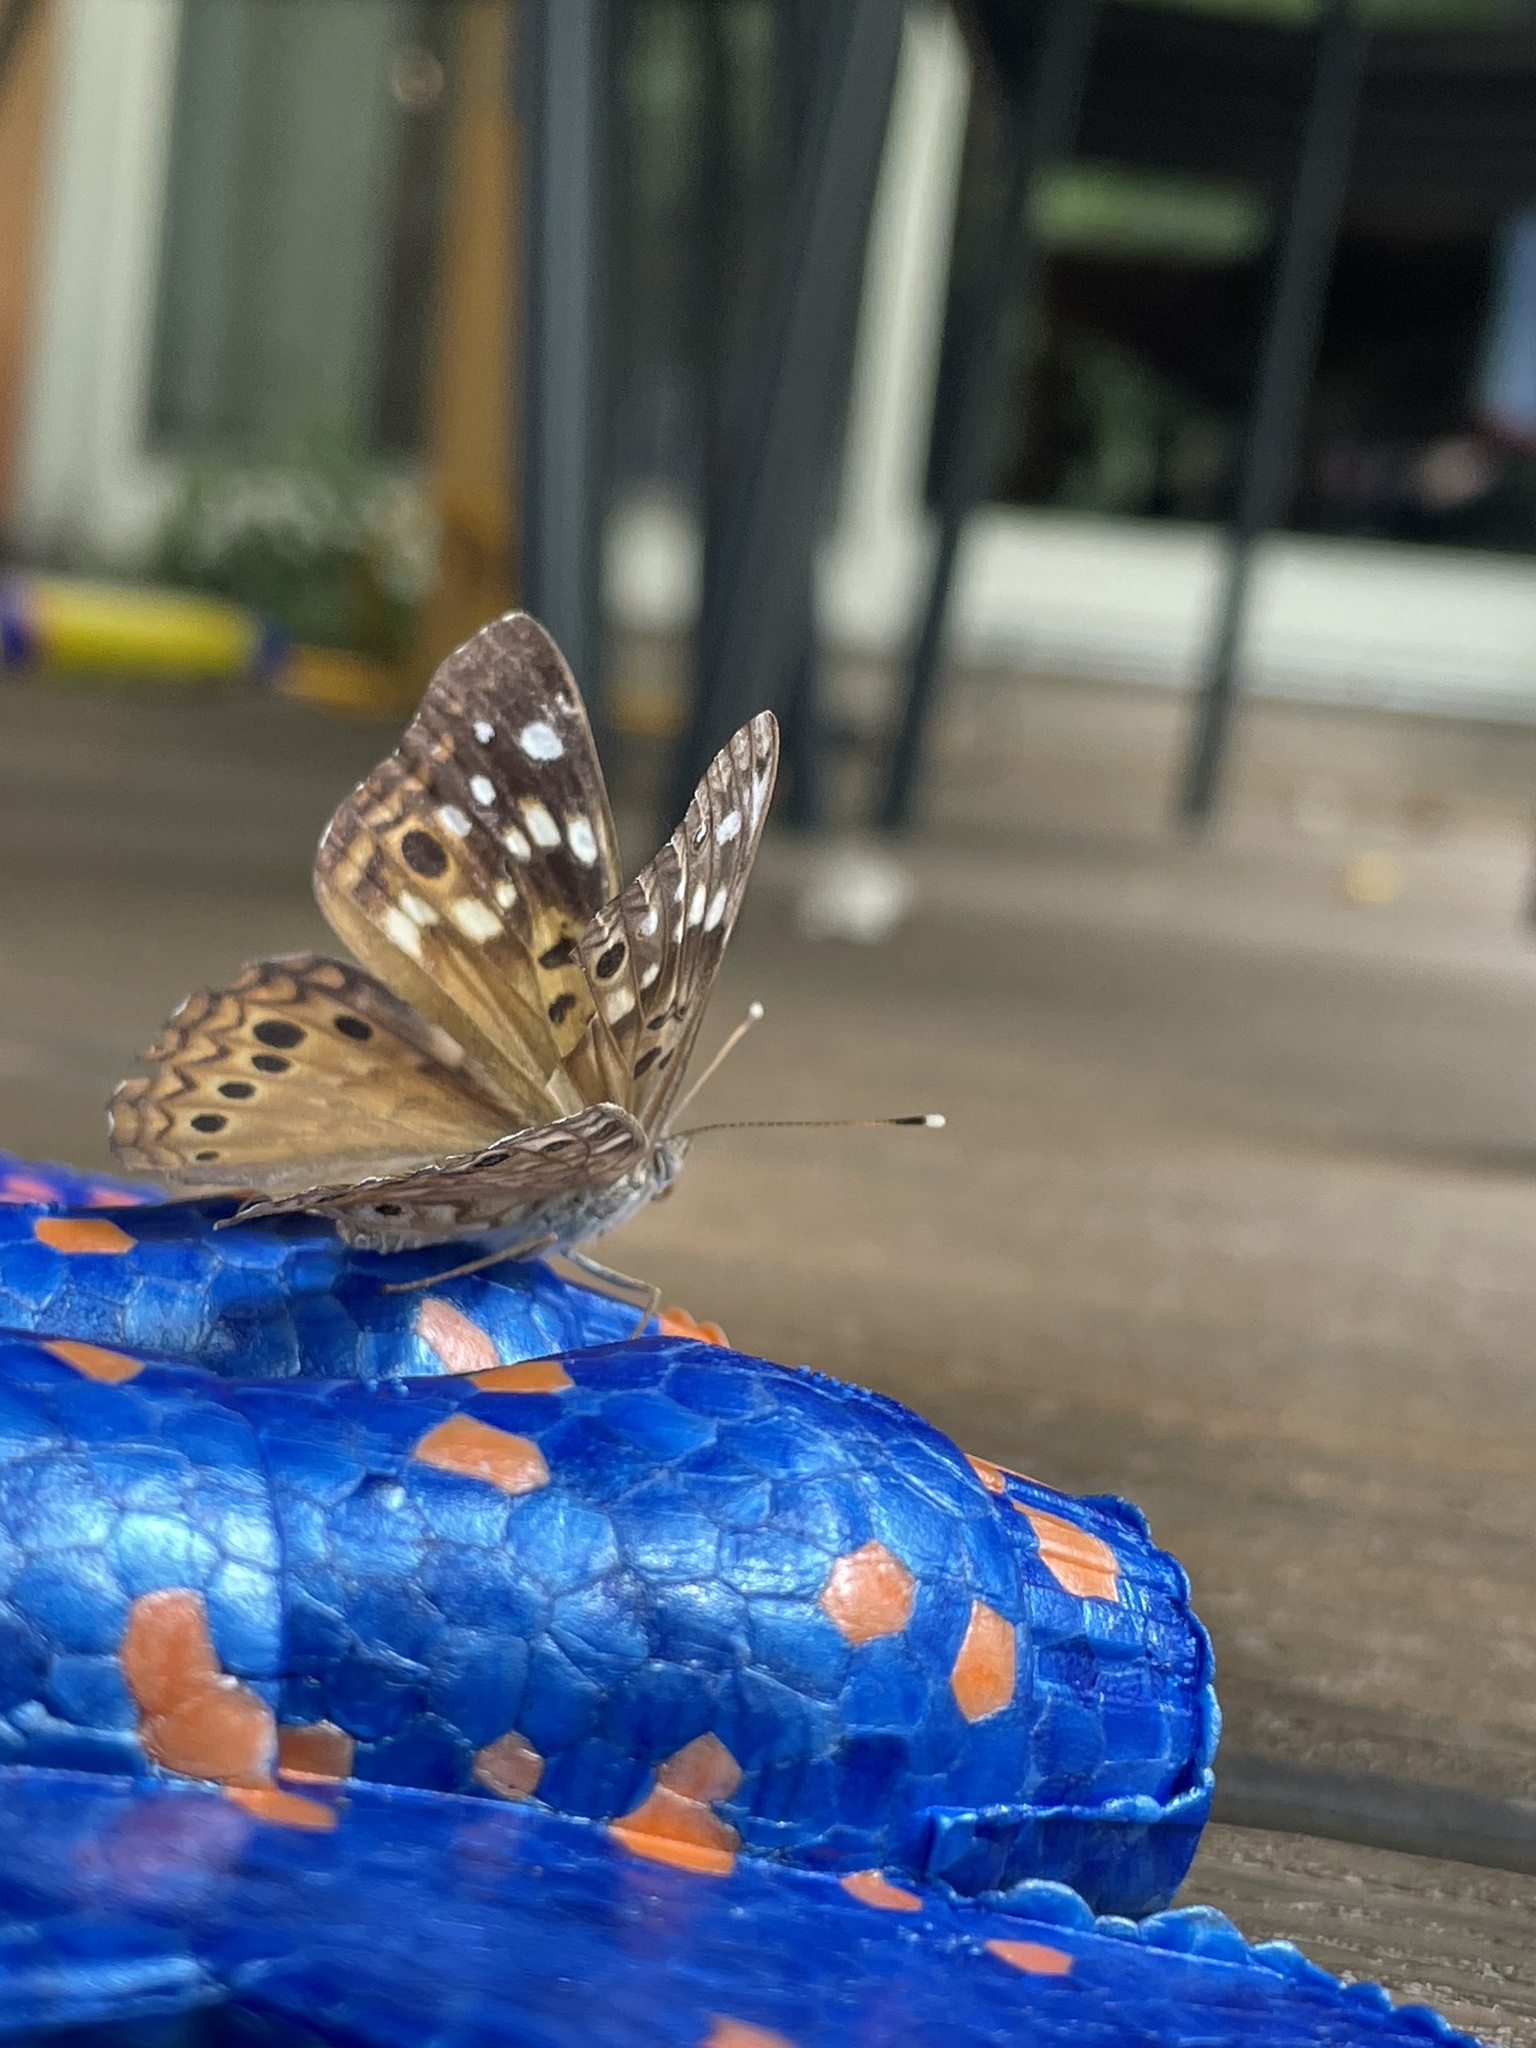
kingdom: Animalia
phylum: Arthropoda
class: Insecta
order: Lepidoptera
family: Nymphalidae
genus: Asterocampa
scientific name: Asterocampa celtis
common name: Hackberry emperor
